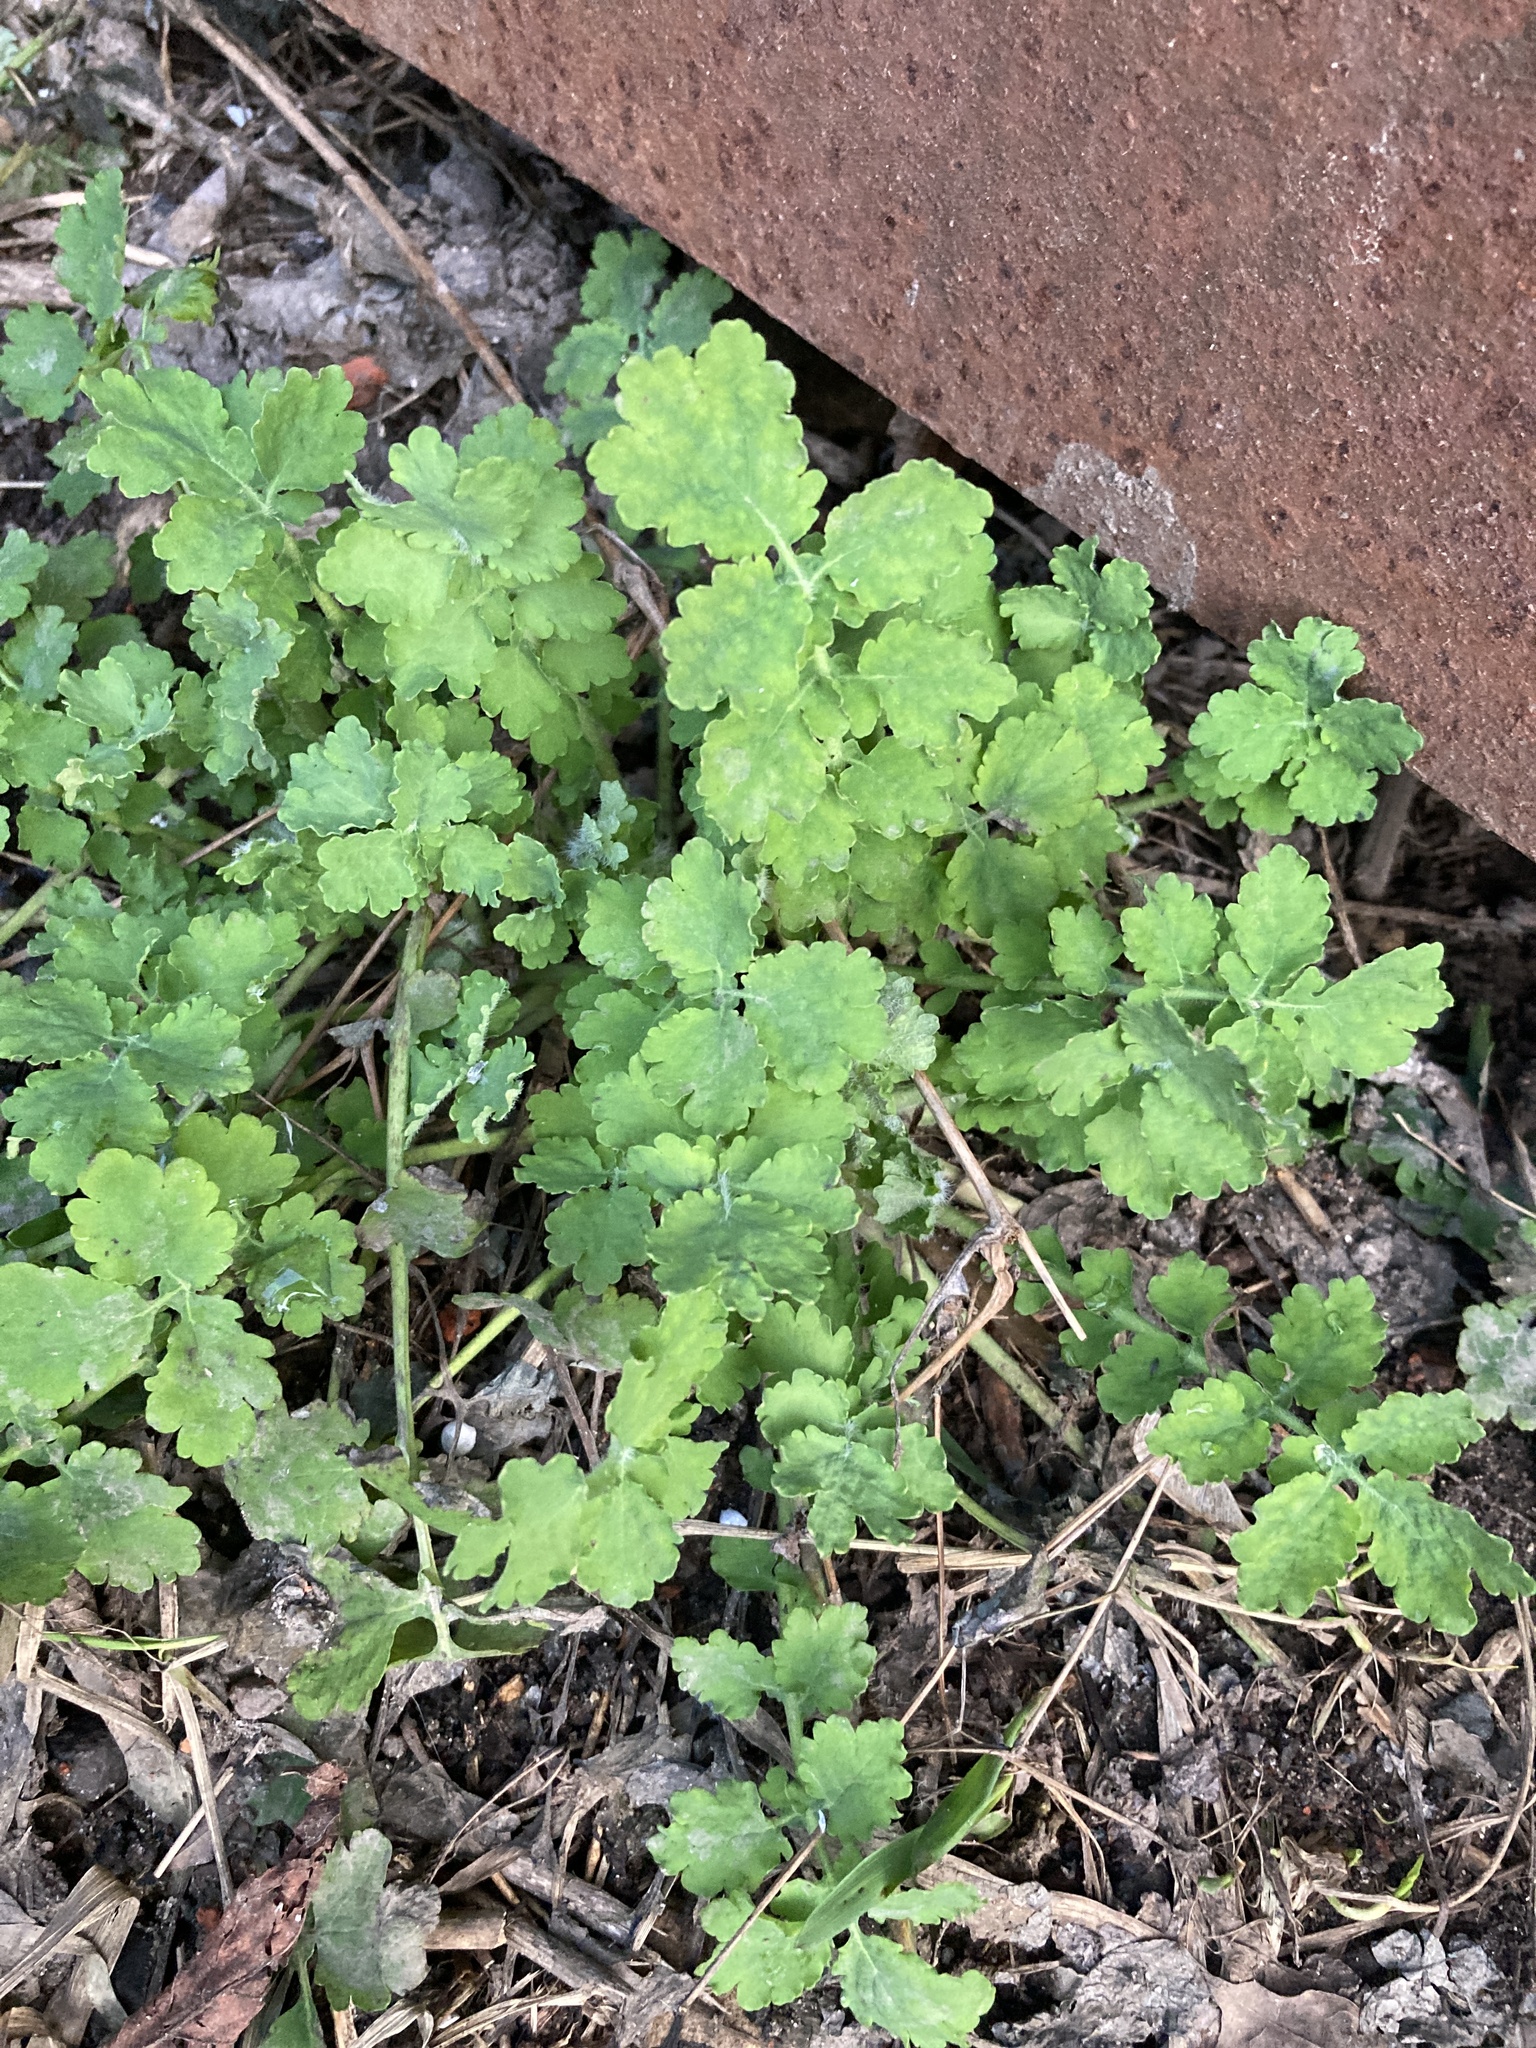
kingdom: Plantae
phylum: Tracheophyta
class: Magnoliopsida
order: Ranunculales
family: Papaveraceae
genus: Chelidonium
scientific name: Chelidonium majus
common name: Greater celandine
